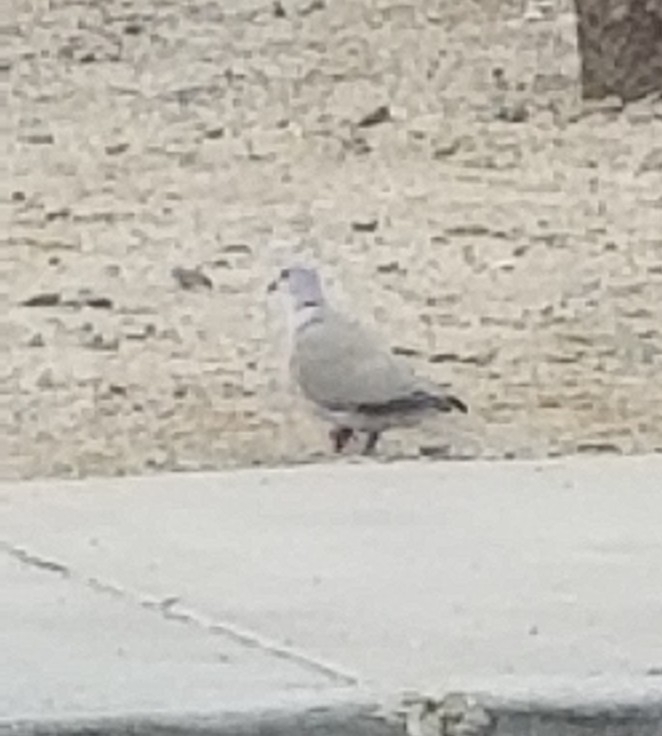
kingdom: Animalia
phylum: Chordata
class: Aves
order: Columbiformes
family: Columbidae
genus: Streptopelia
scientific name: Streptopelia decaocto
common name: Eurasian collared dove
